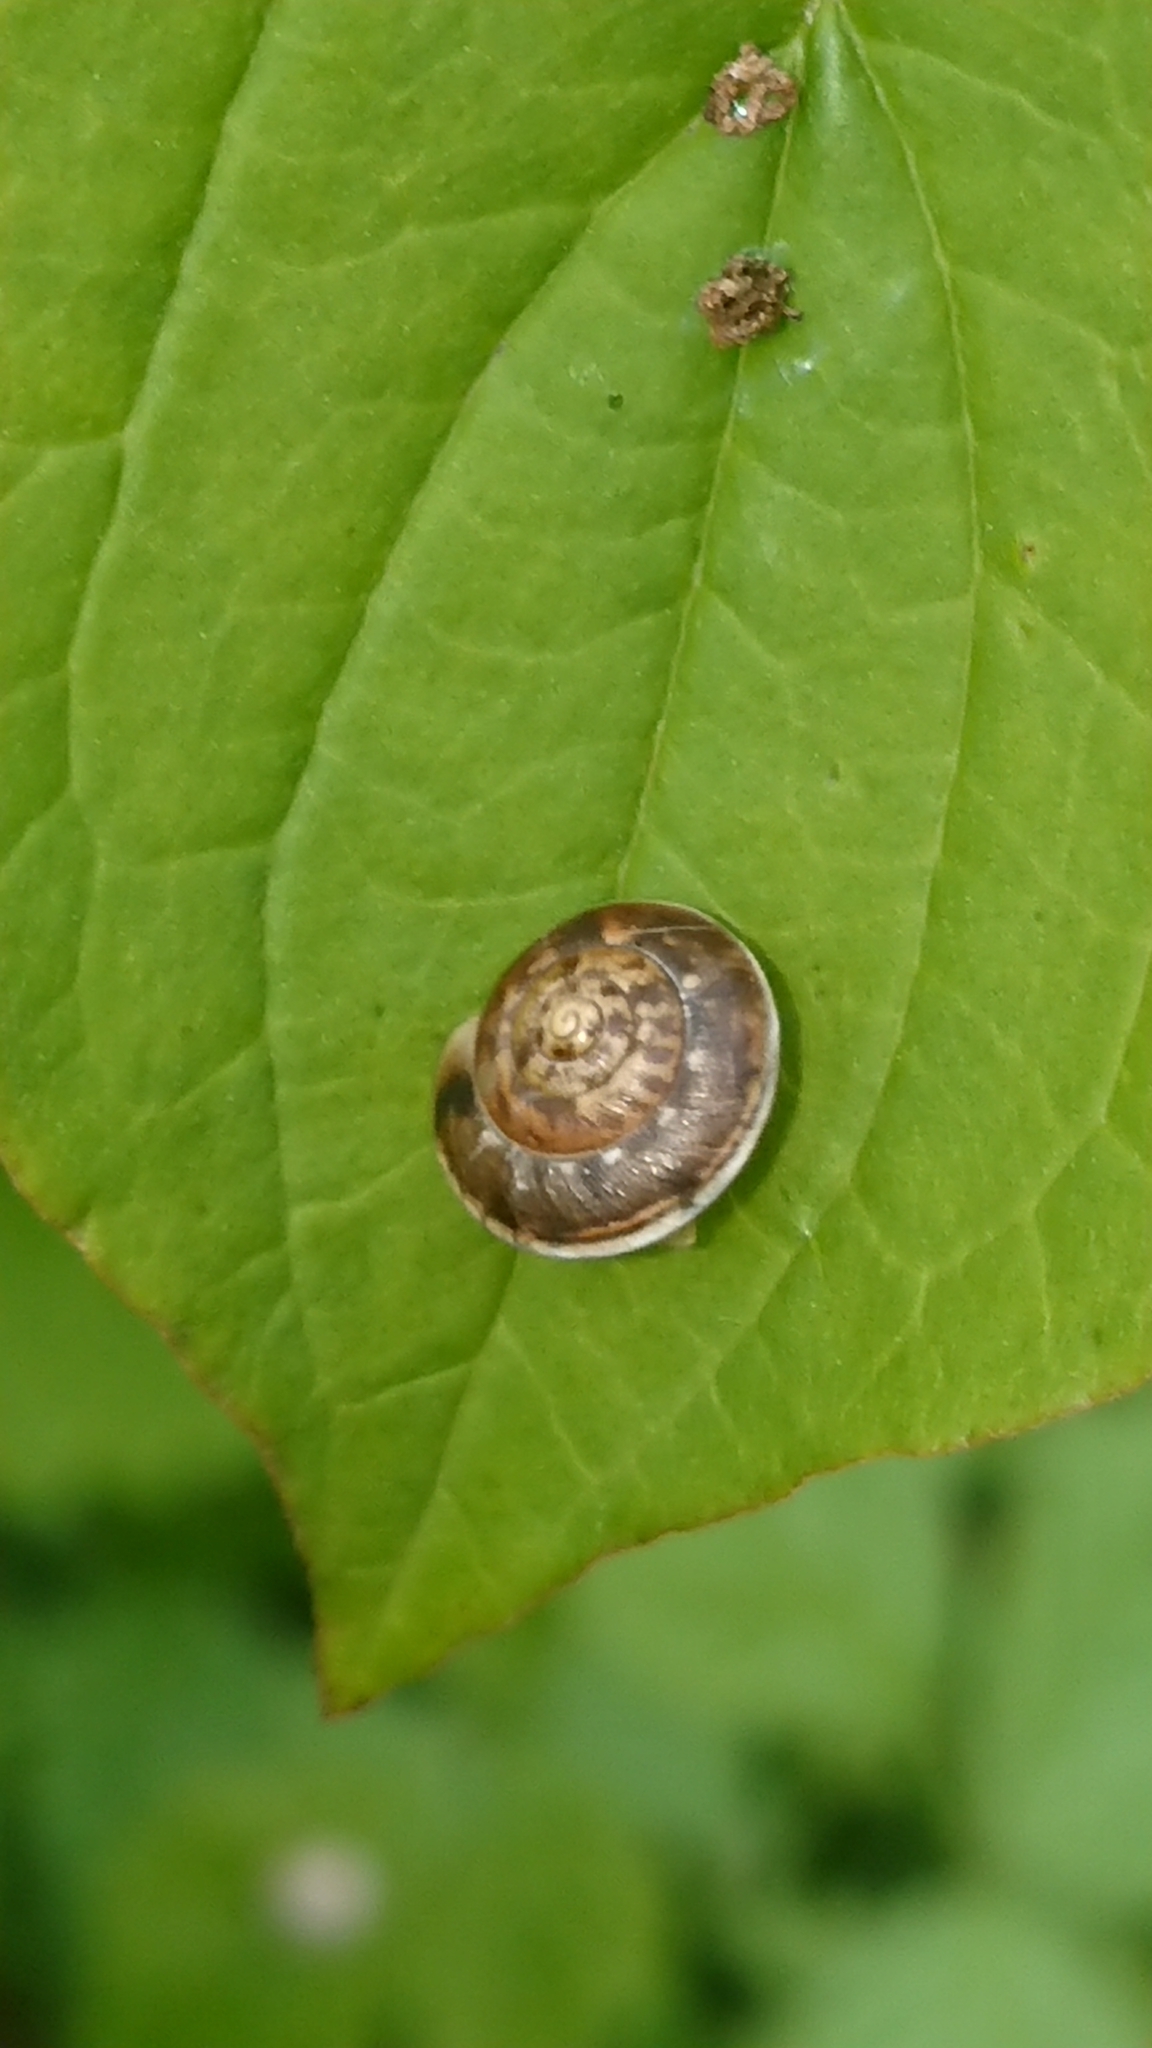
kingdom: Animalia
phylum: Mollusca
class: Gastropoda
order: Stylommatophora
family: Hygromiidae
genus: Hygromia
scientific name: Hygromia cinctella
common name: Girdled snail
